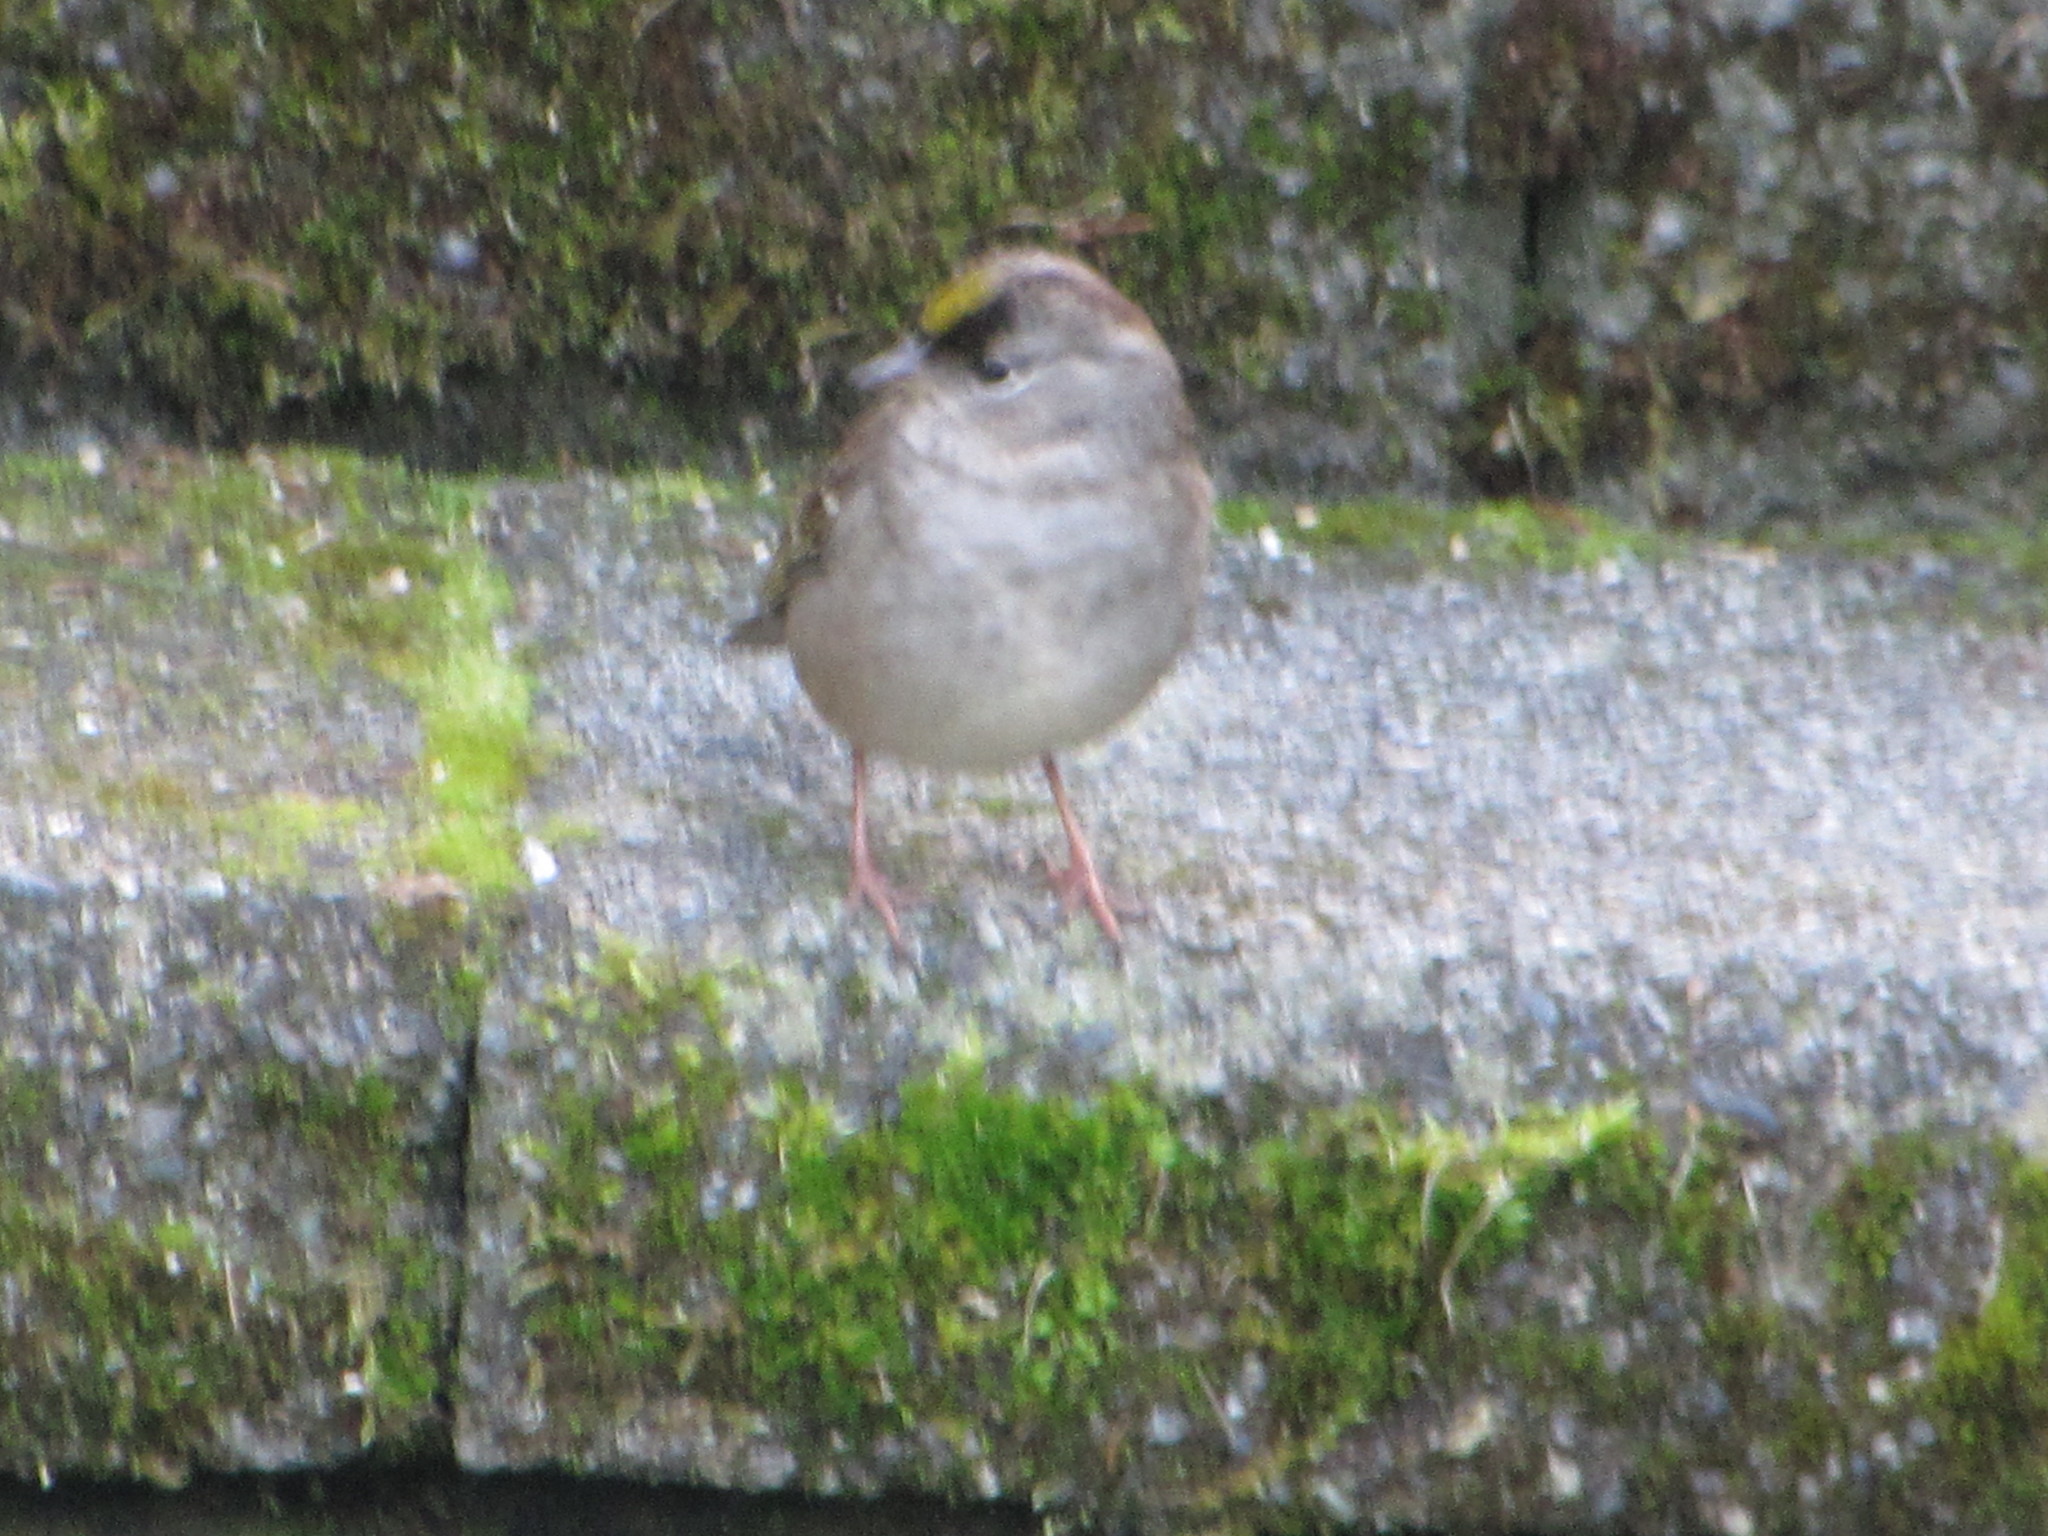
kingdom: Animalia
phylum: Chordata
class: Aves
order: Passeriformes
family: Passerellidae
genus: Zonotrichia
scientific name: Zonotrichia atricapilla
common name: Golden-crowned sparrow
